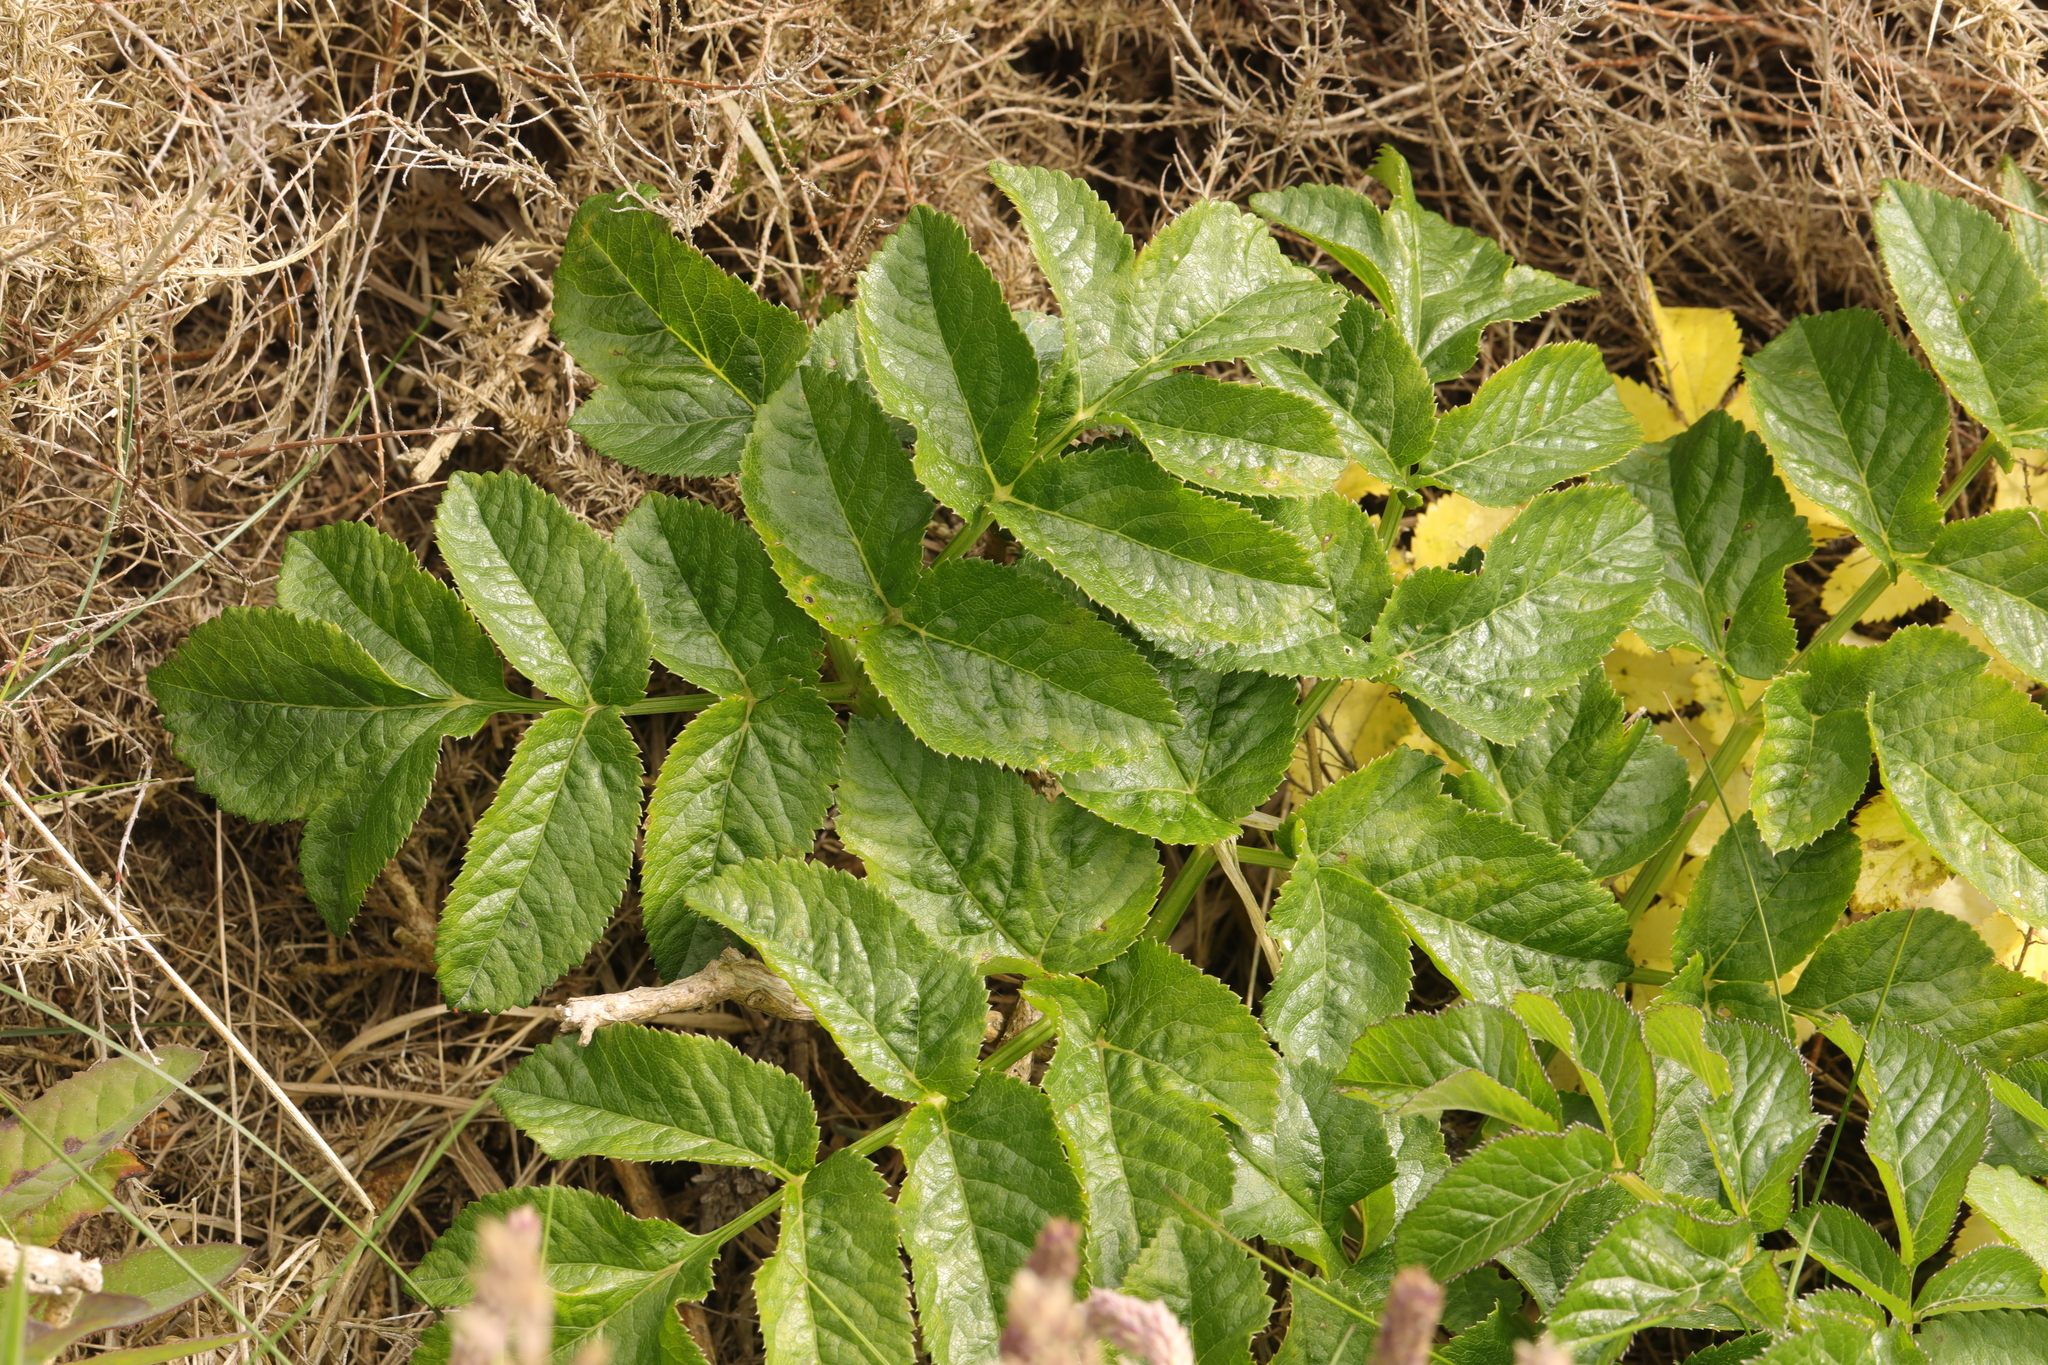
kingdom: Plantae
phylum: Tracheophyta
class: Magnoliopsida
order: Apiales
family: Apiaceae
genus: Angelica
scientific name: Angelica sylvestris
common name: Wild angelica
